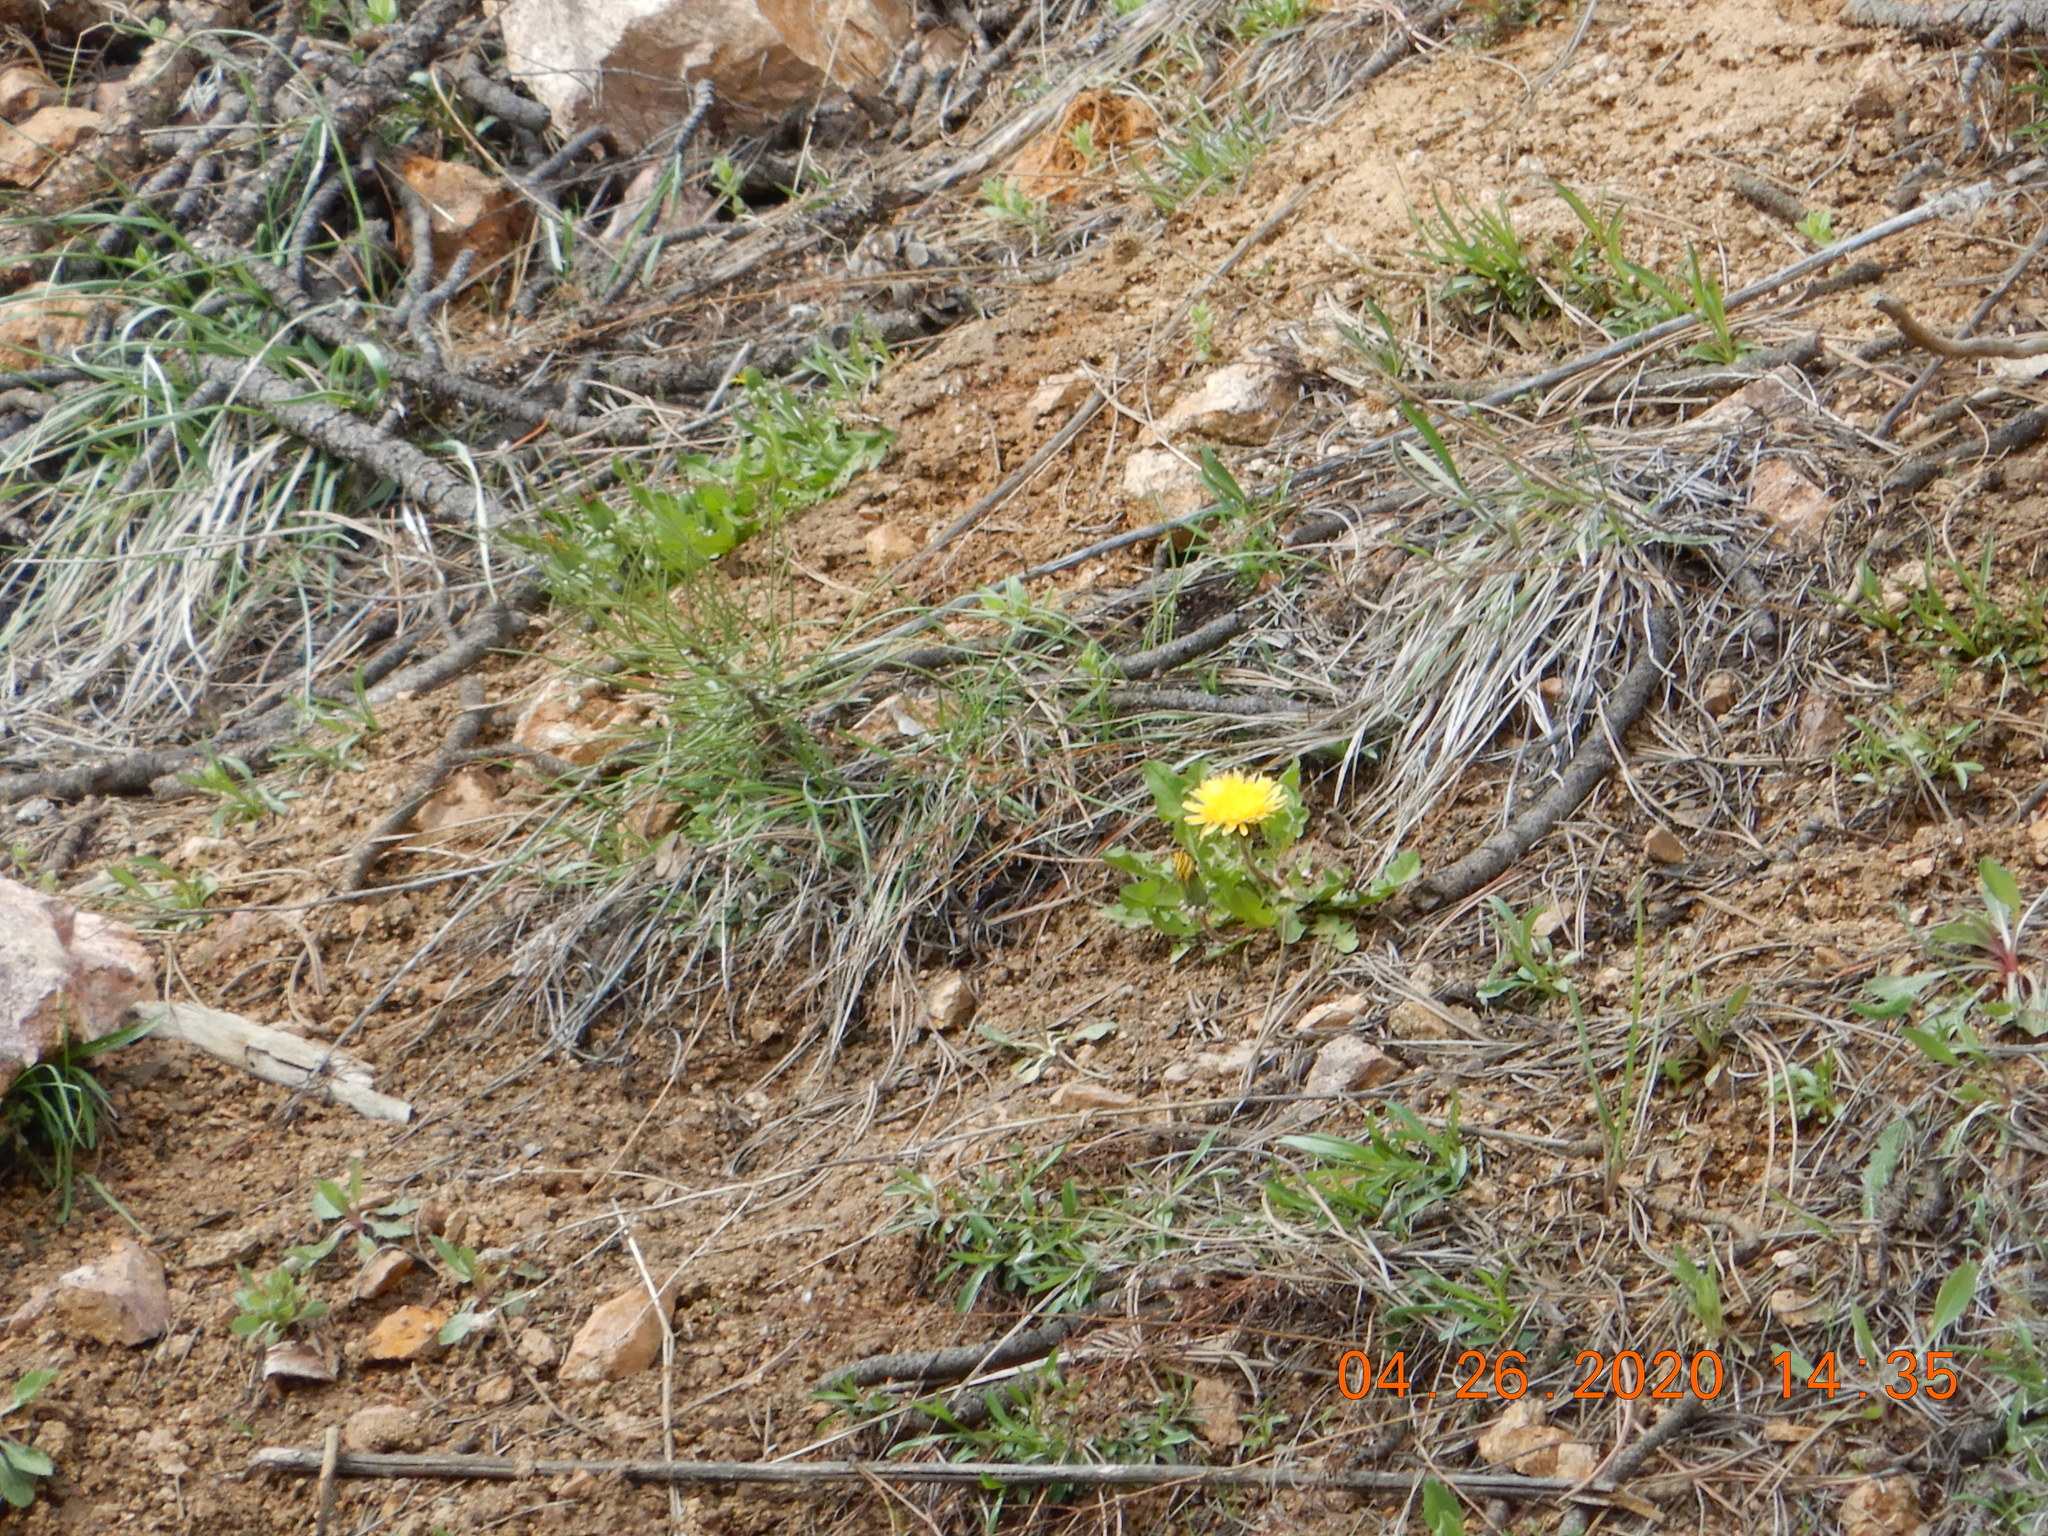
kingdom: Plantae
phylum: Tracheophyta
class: Magnoliopsida
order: Asterales
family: Asteraceae
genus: Taraxacum
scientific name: Taraxacum officinale
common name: Common dandelion
